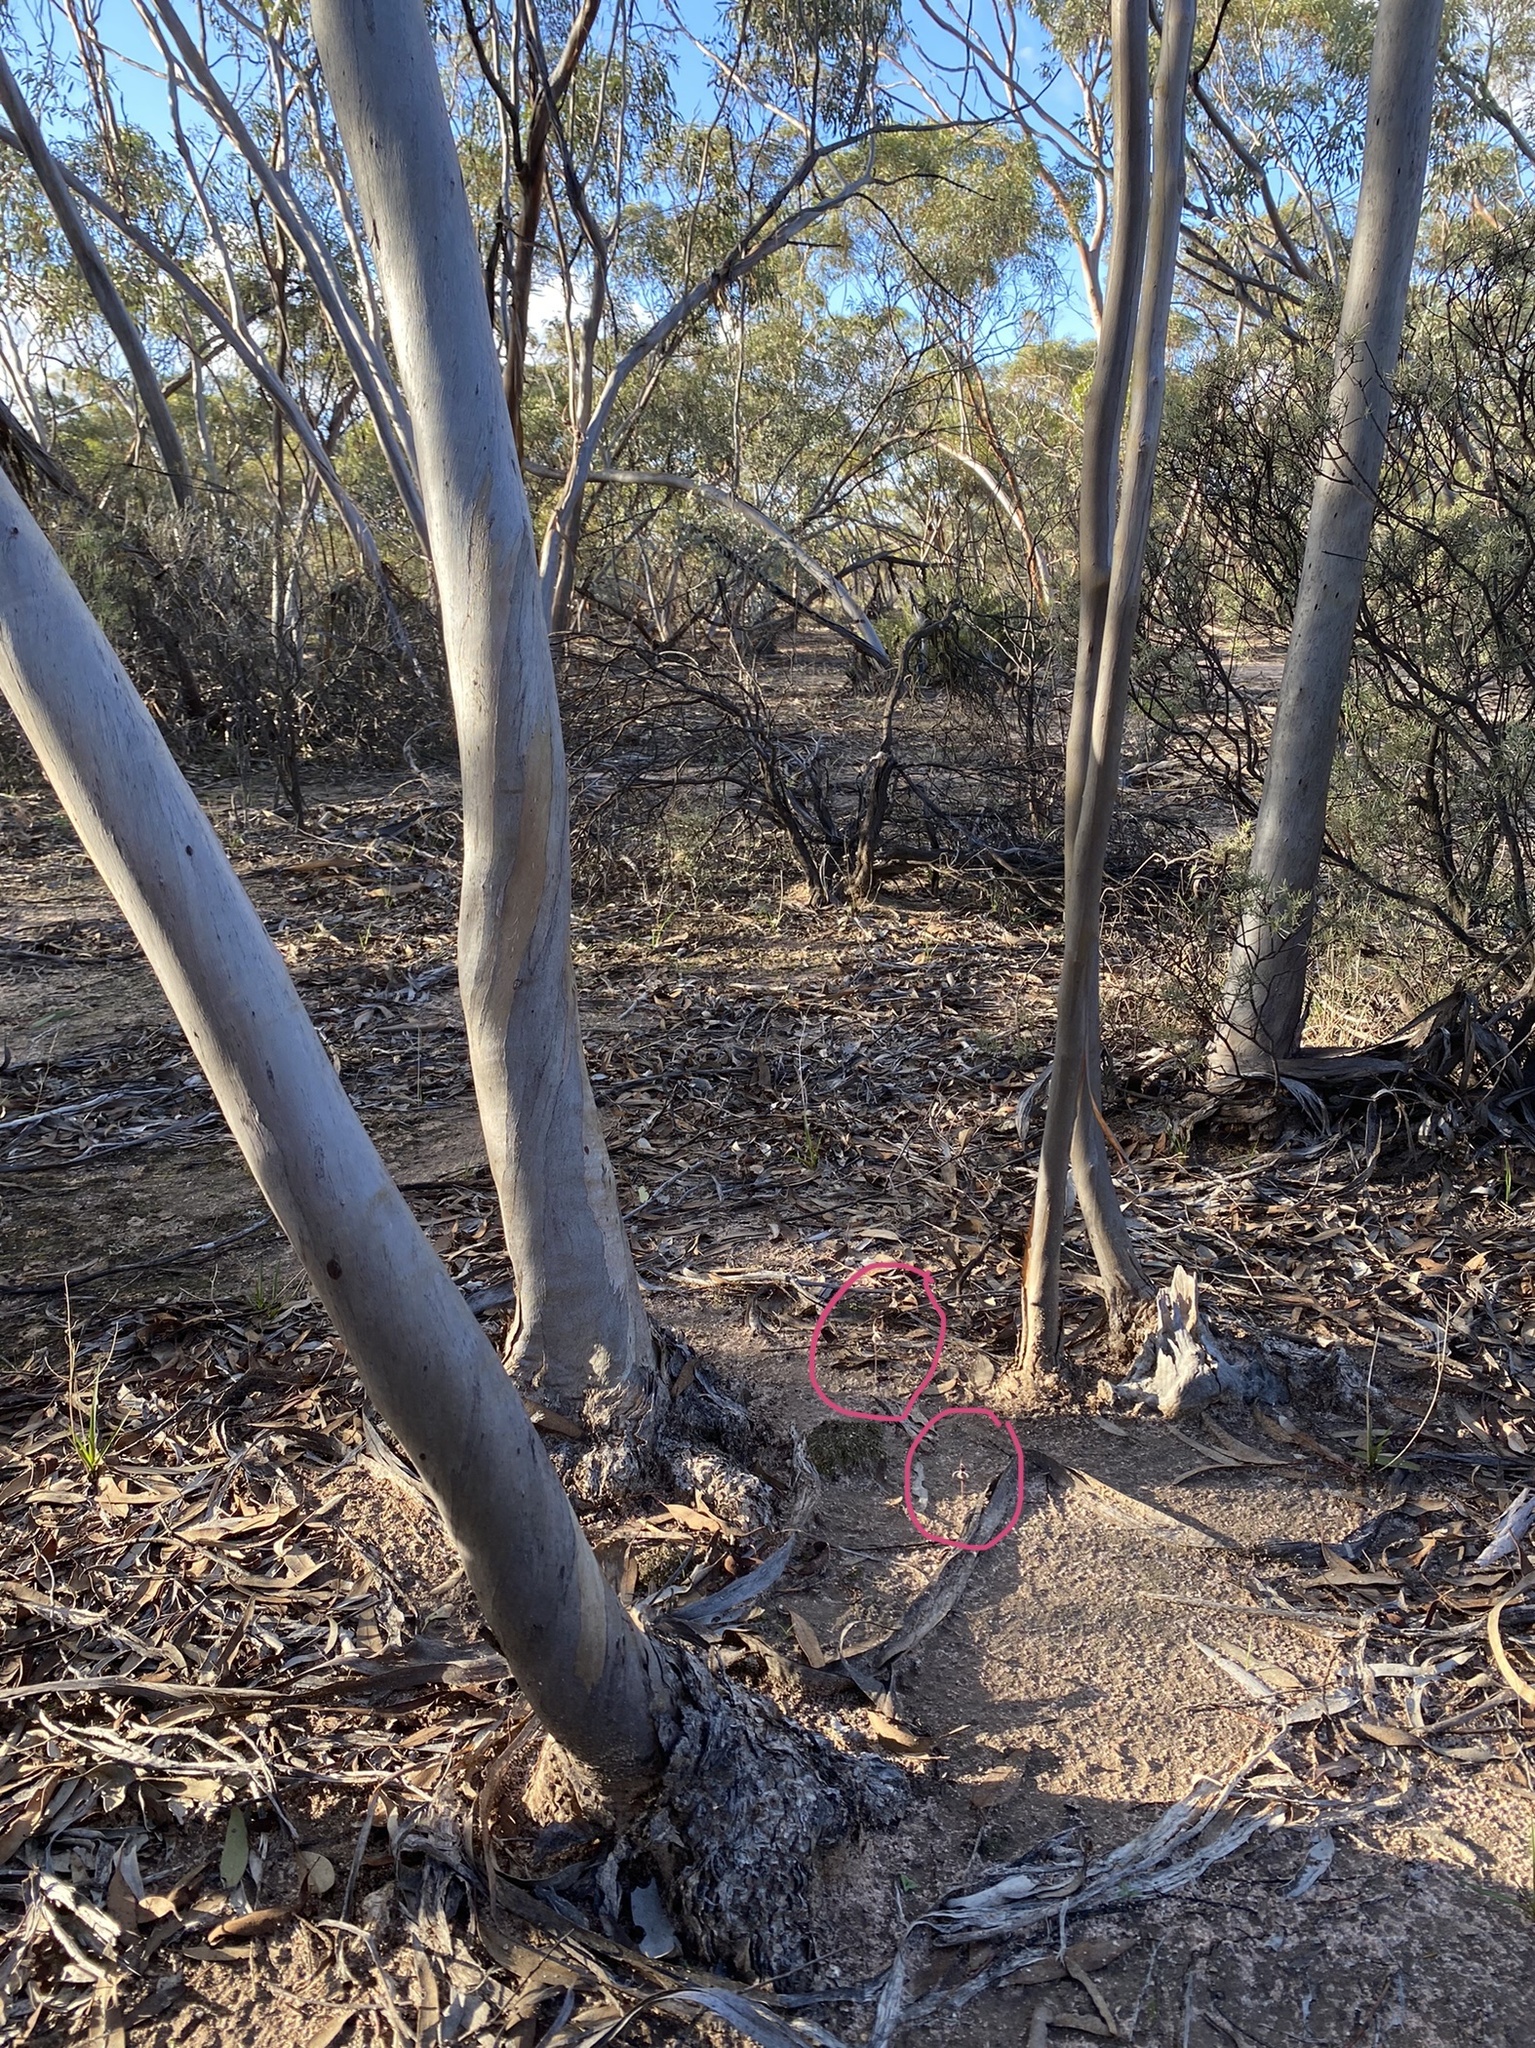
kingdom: Plantae
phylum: Tracheophyta
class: Liliopsida
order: Asparagales
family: Orchidaceae
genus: Caladenia
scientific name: Caladenia drummondii
